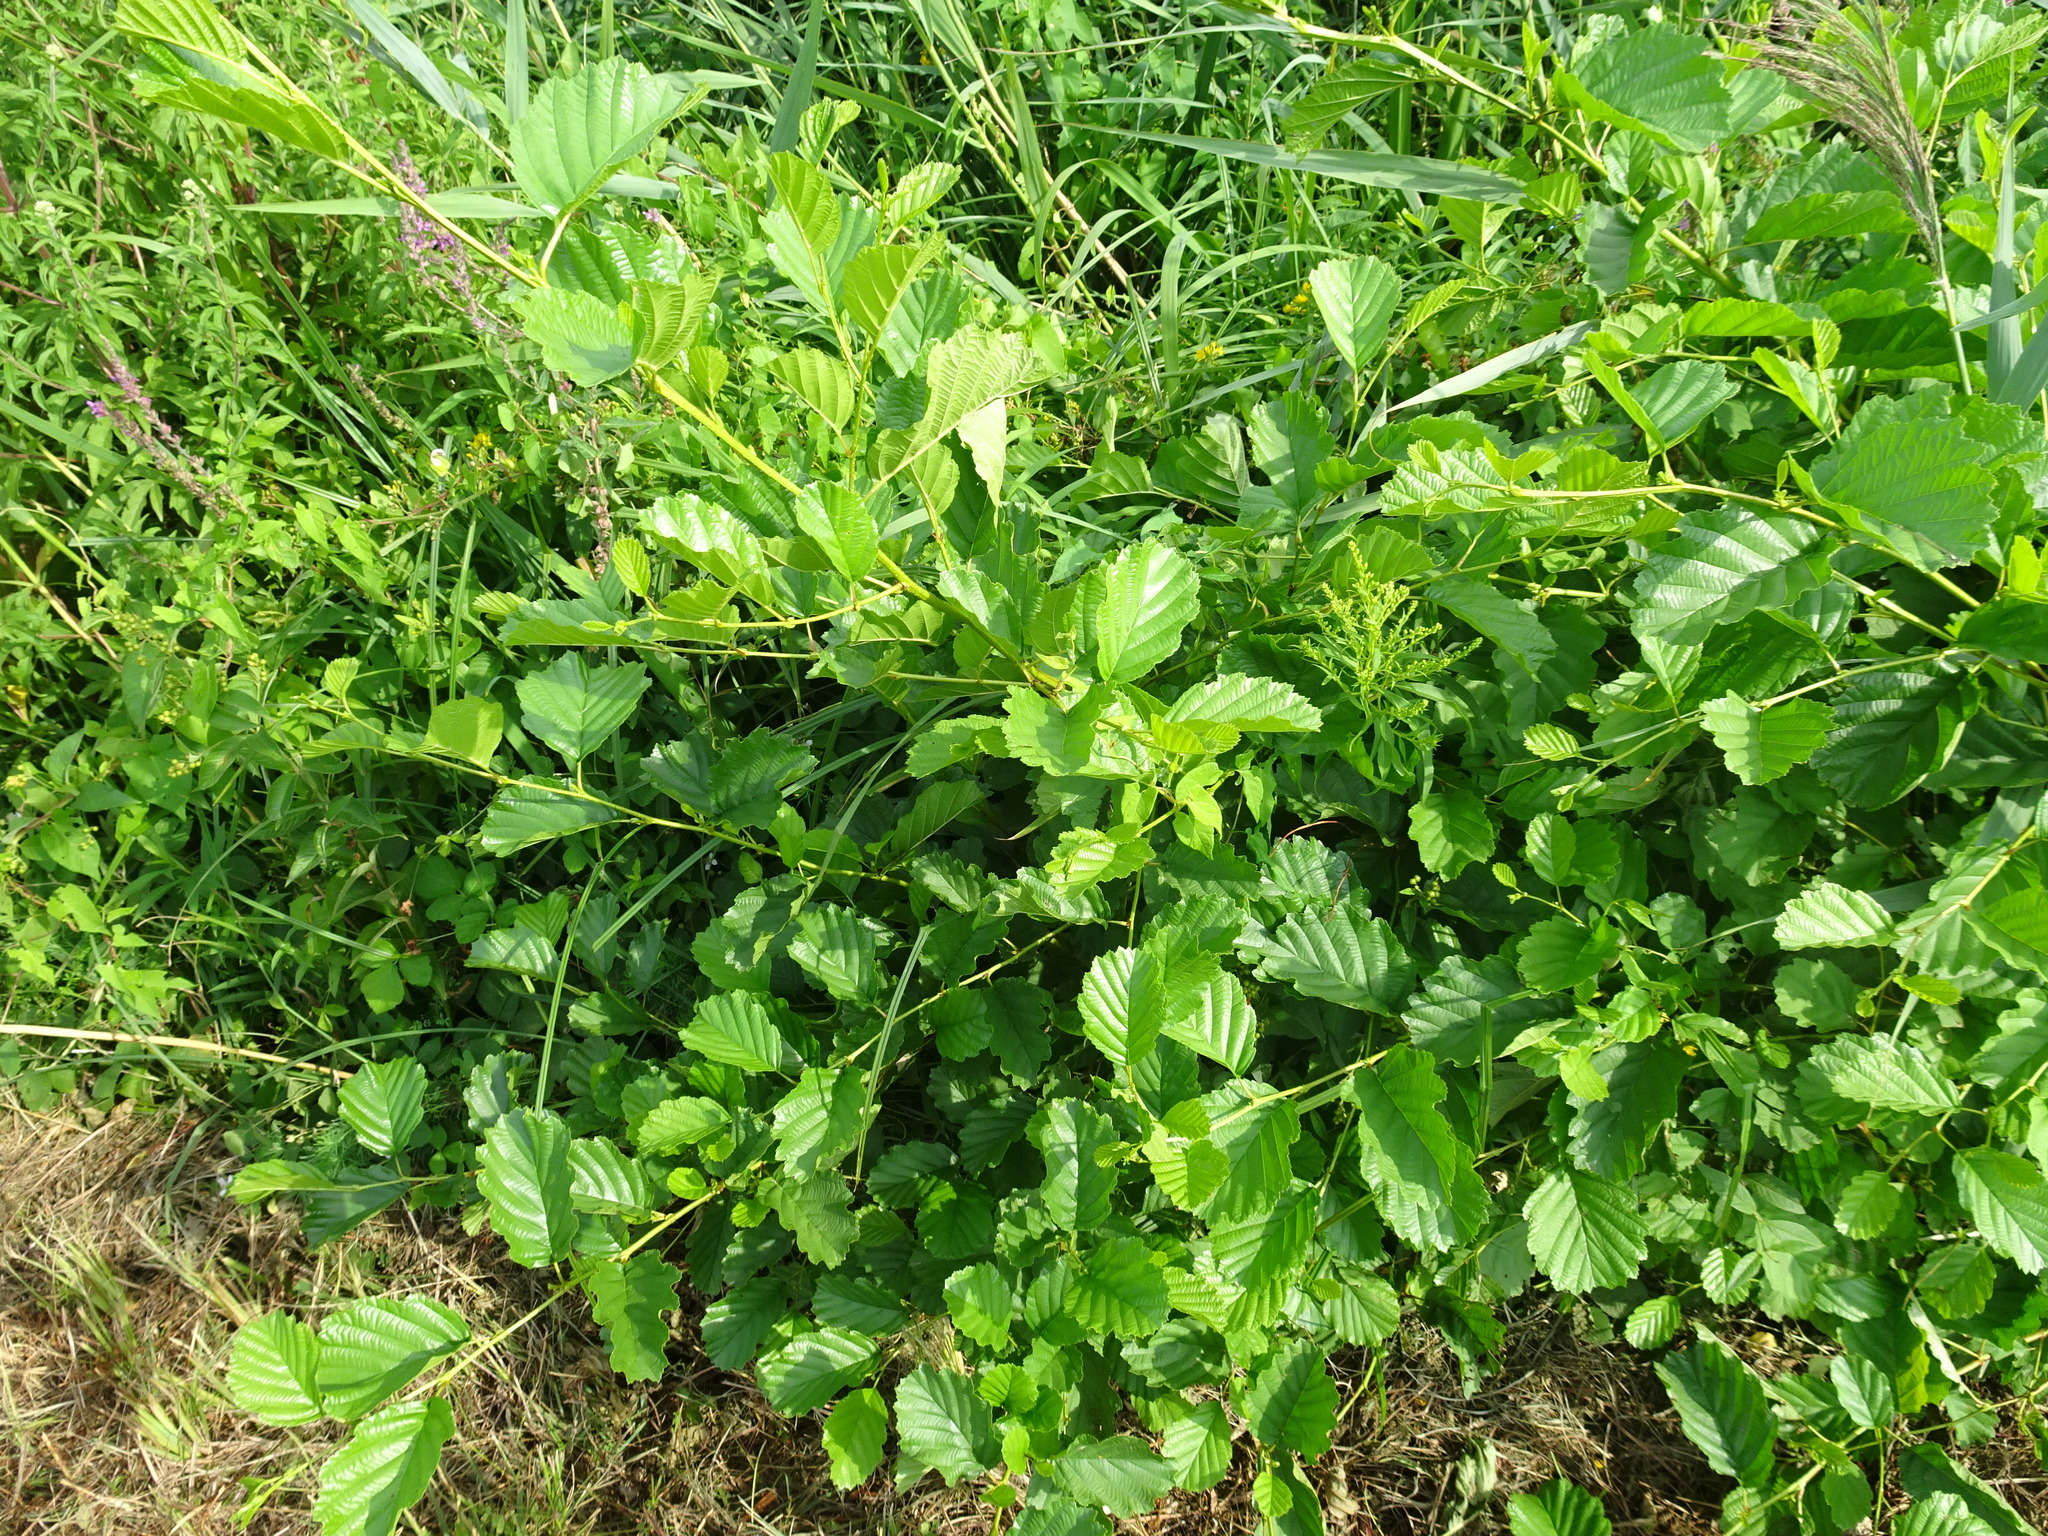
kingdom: Plantae
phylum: Tracheophyta
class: Magnoliopsida
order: Fagales
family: Betulaceae
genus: Alnus
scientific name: Alnus glutinosa
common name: Black alder
